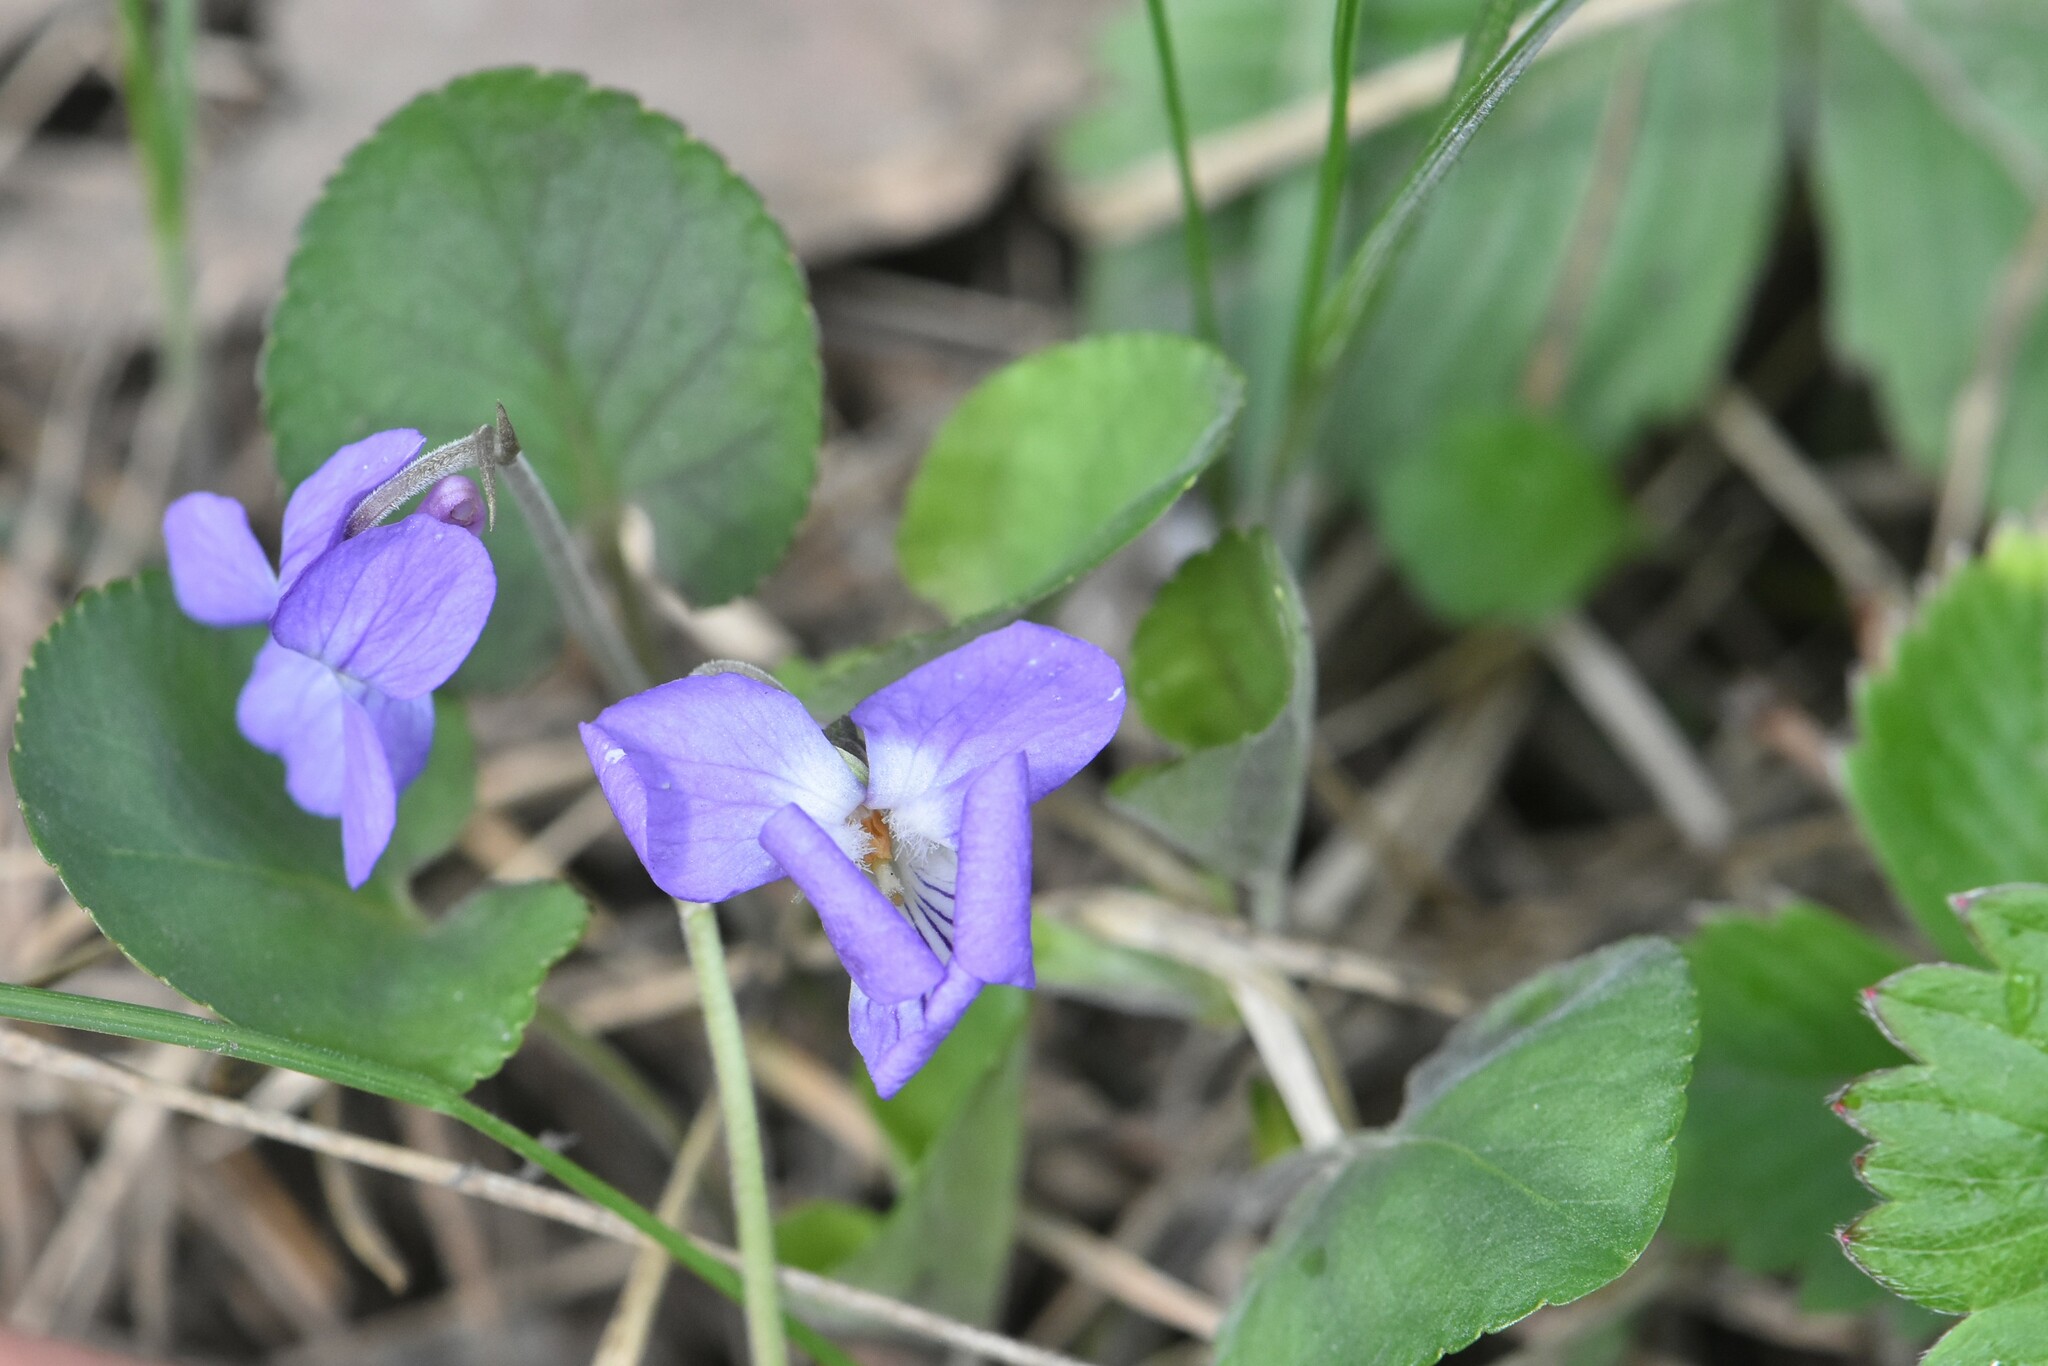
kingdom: Plantae
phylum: Tracheophyta
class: Magnoliopsida
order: Malpighiales
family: Violaceae
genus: Viola
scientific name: Viola rupestris
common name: Teesdale violet
